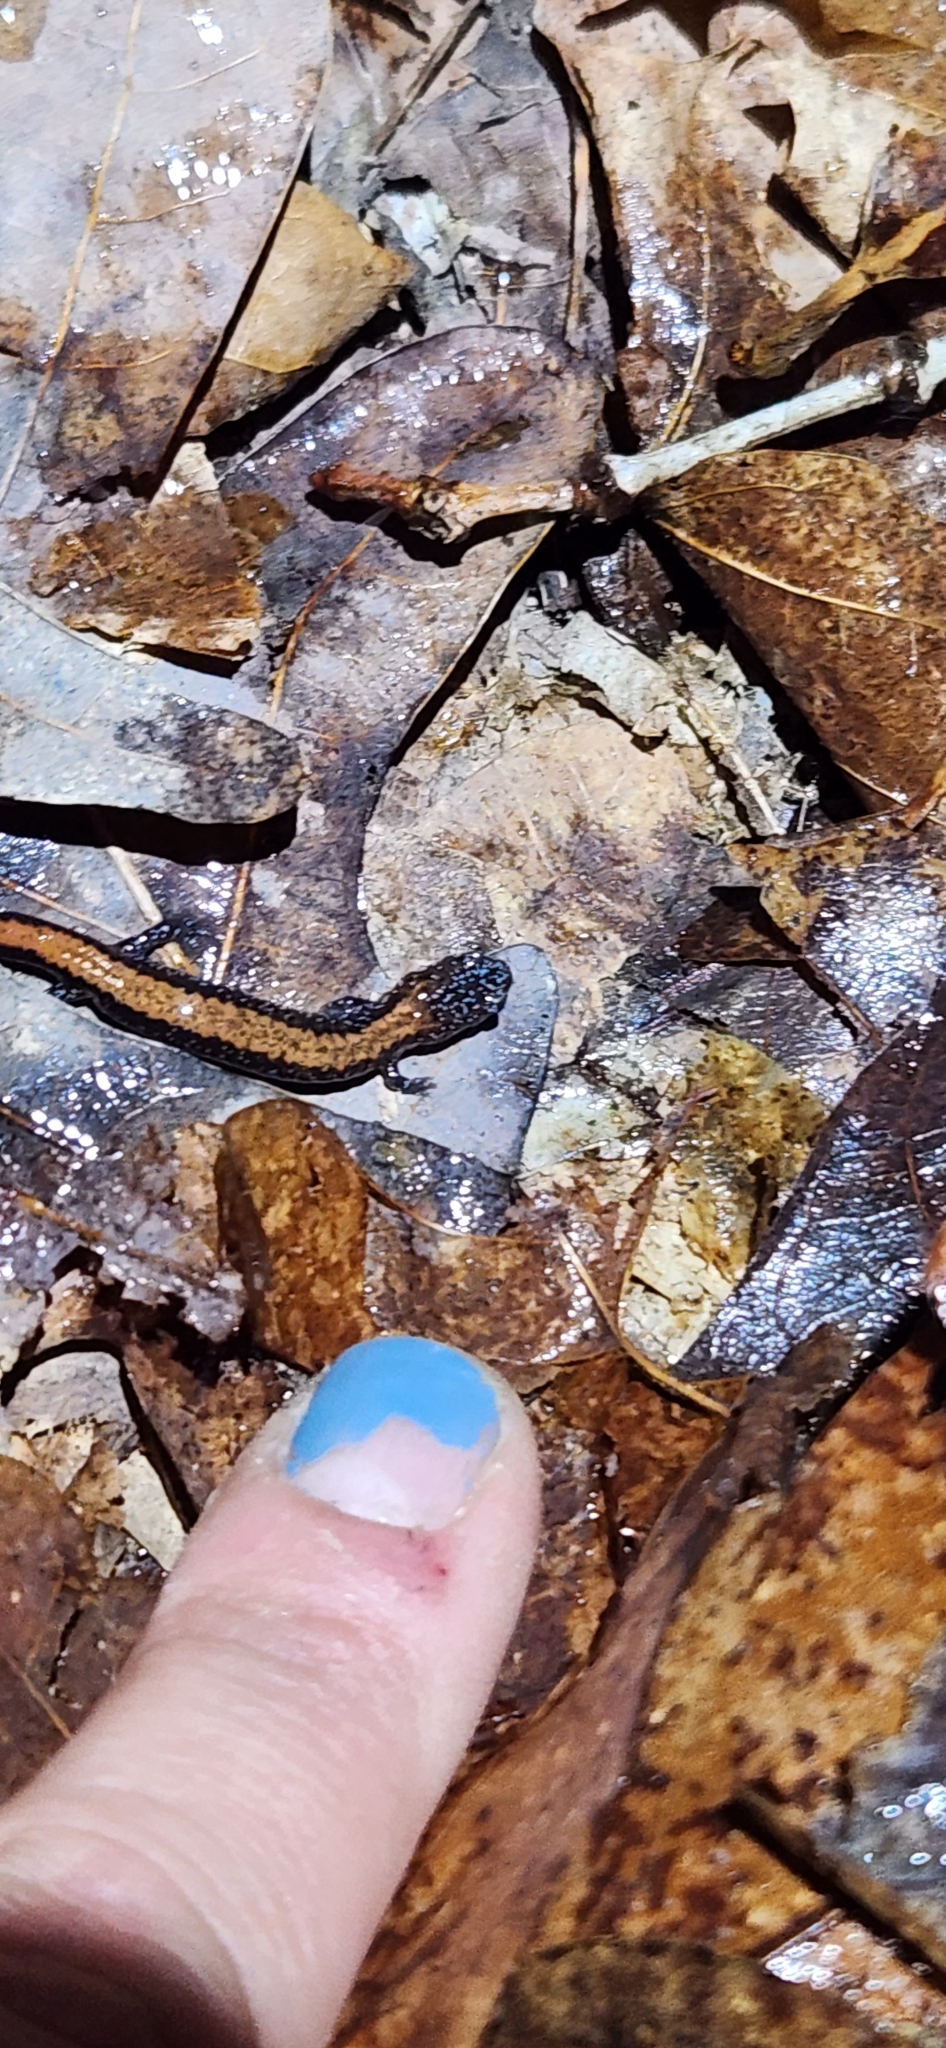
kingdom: Animalia
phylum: Chordata
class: Amphibia
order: Caudata
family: Plethodontidae
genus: Plethodon
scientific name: Plethodon cinereus
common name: Redback salamander
